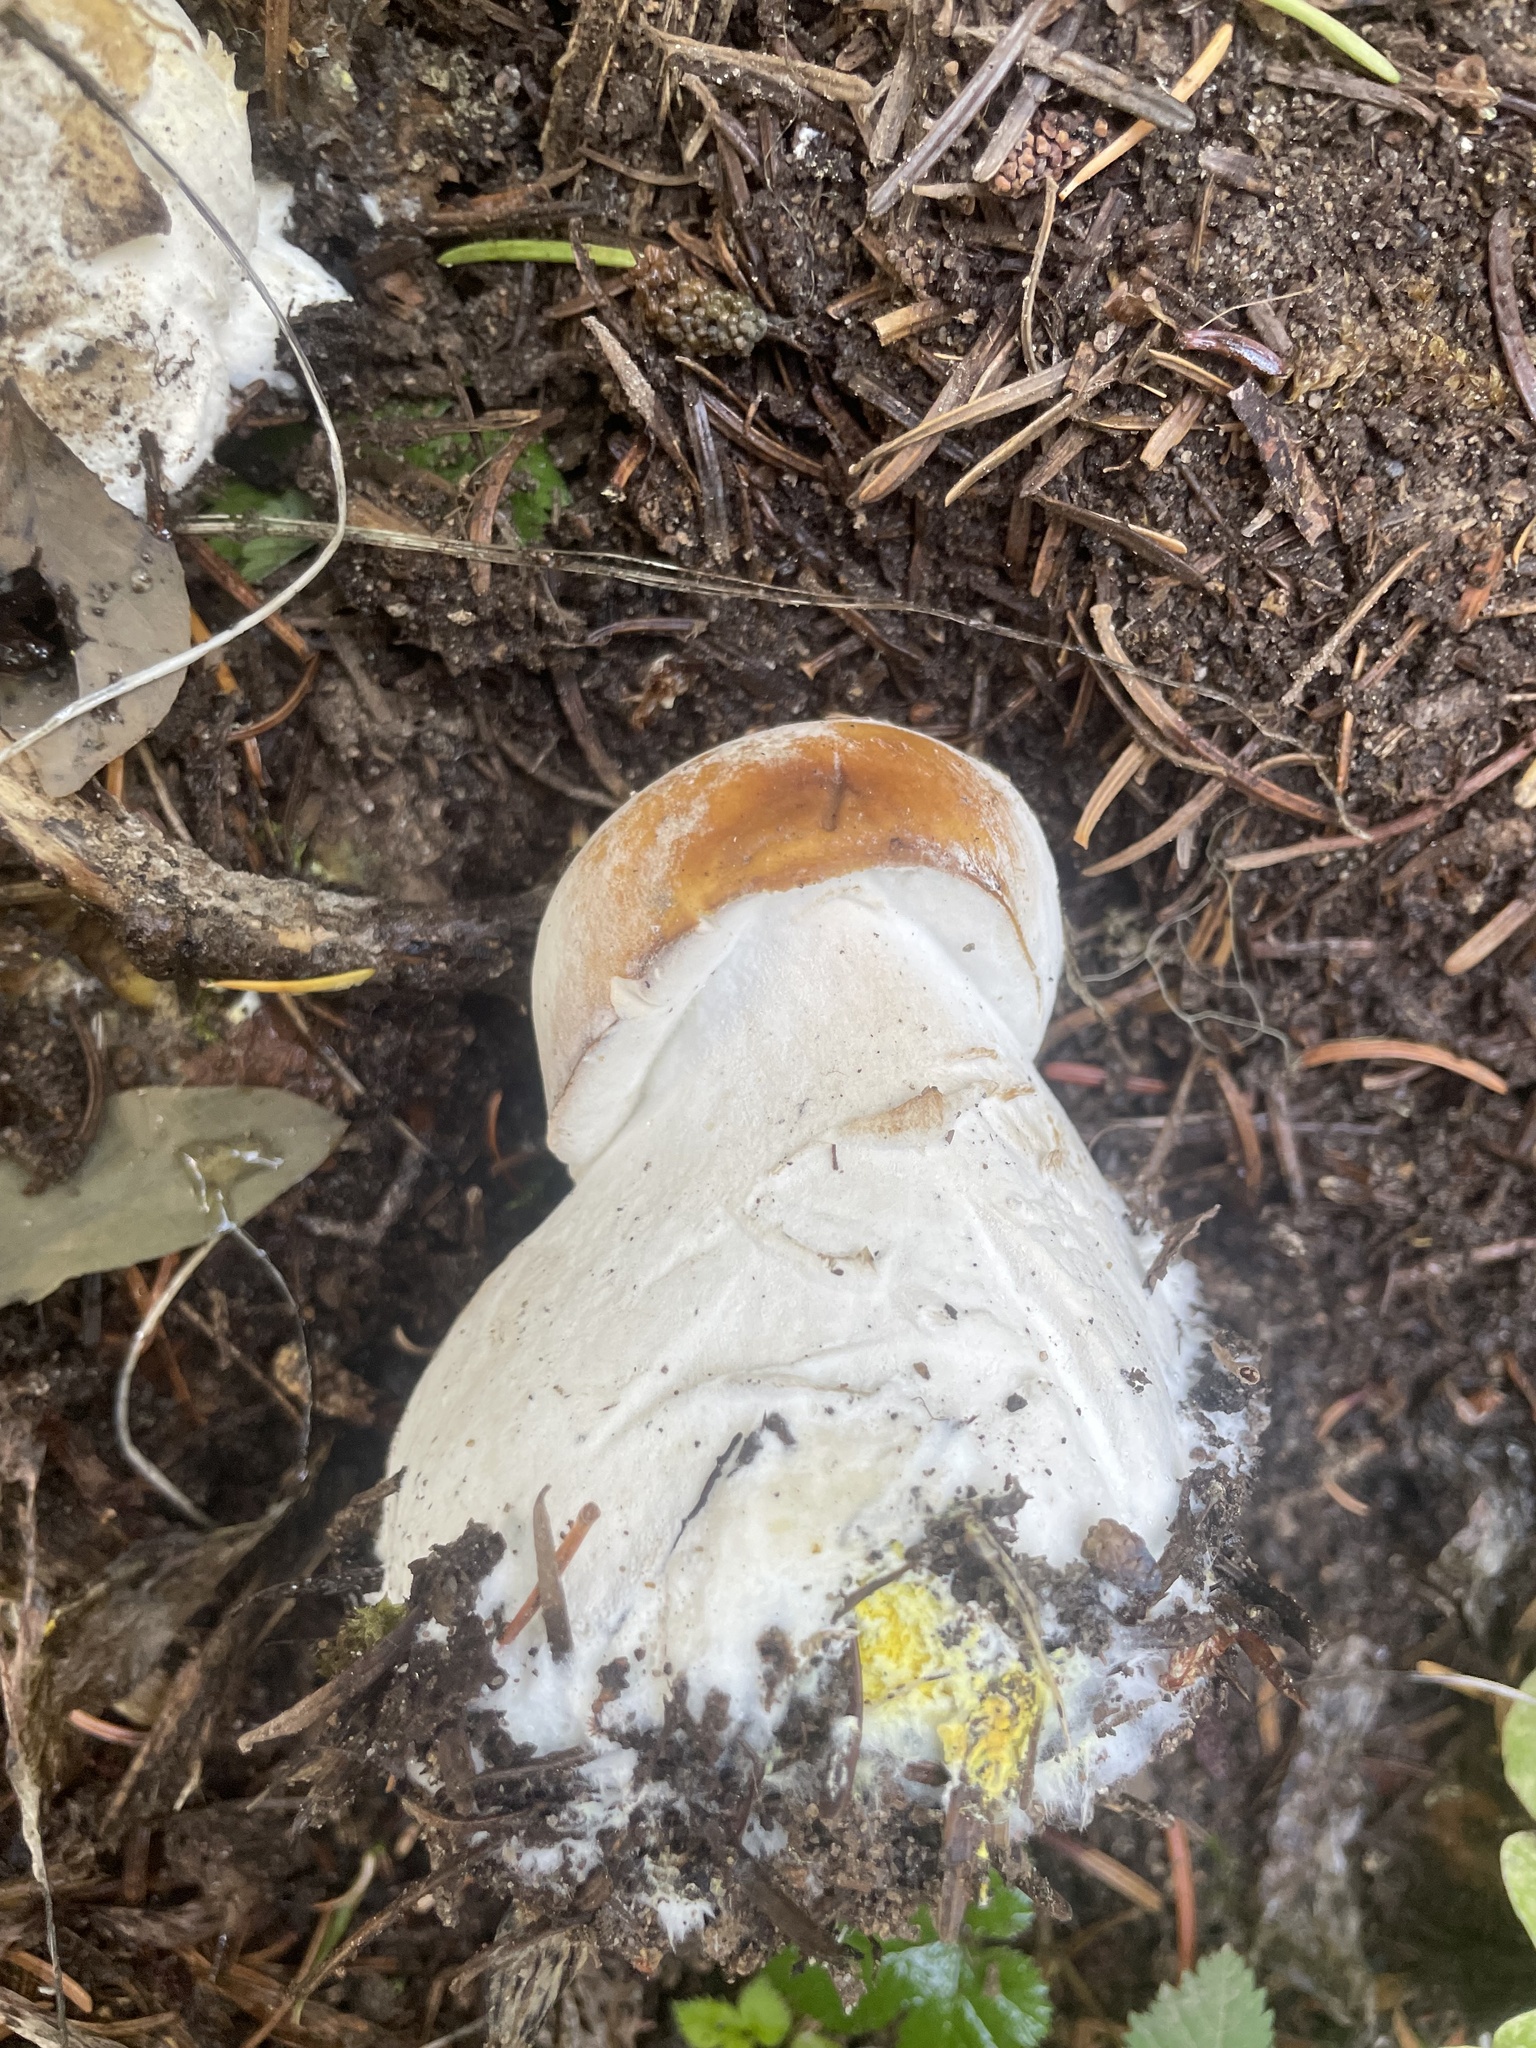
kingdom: Fungi
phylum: Basidiomycota
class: Agaricomycetes
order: Boletales
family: Boletaceae
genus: Boletus
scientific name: Boletus edulis
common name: Cep
